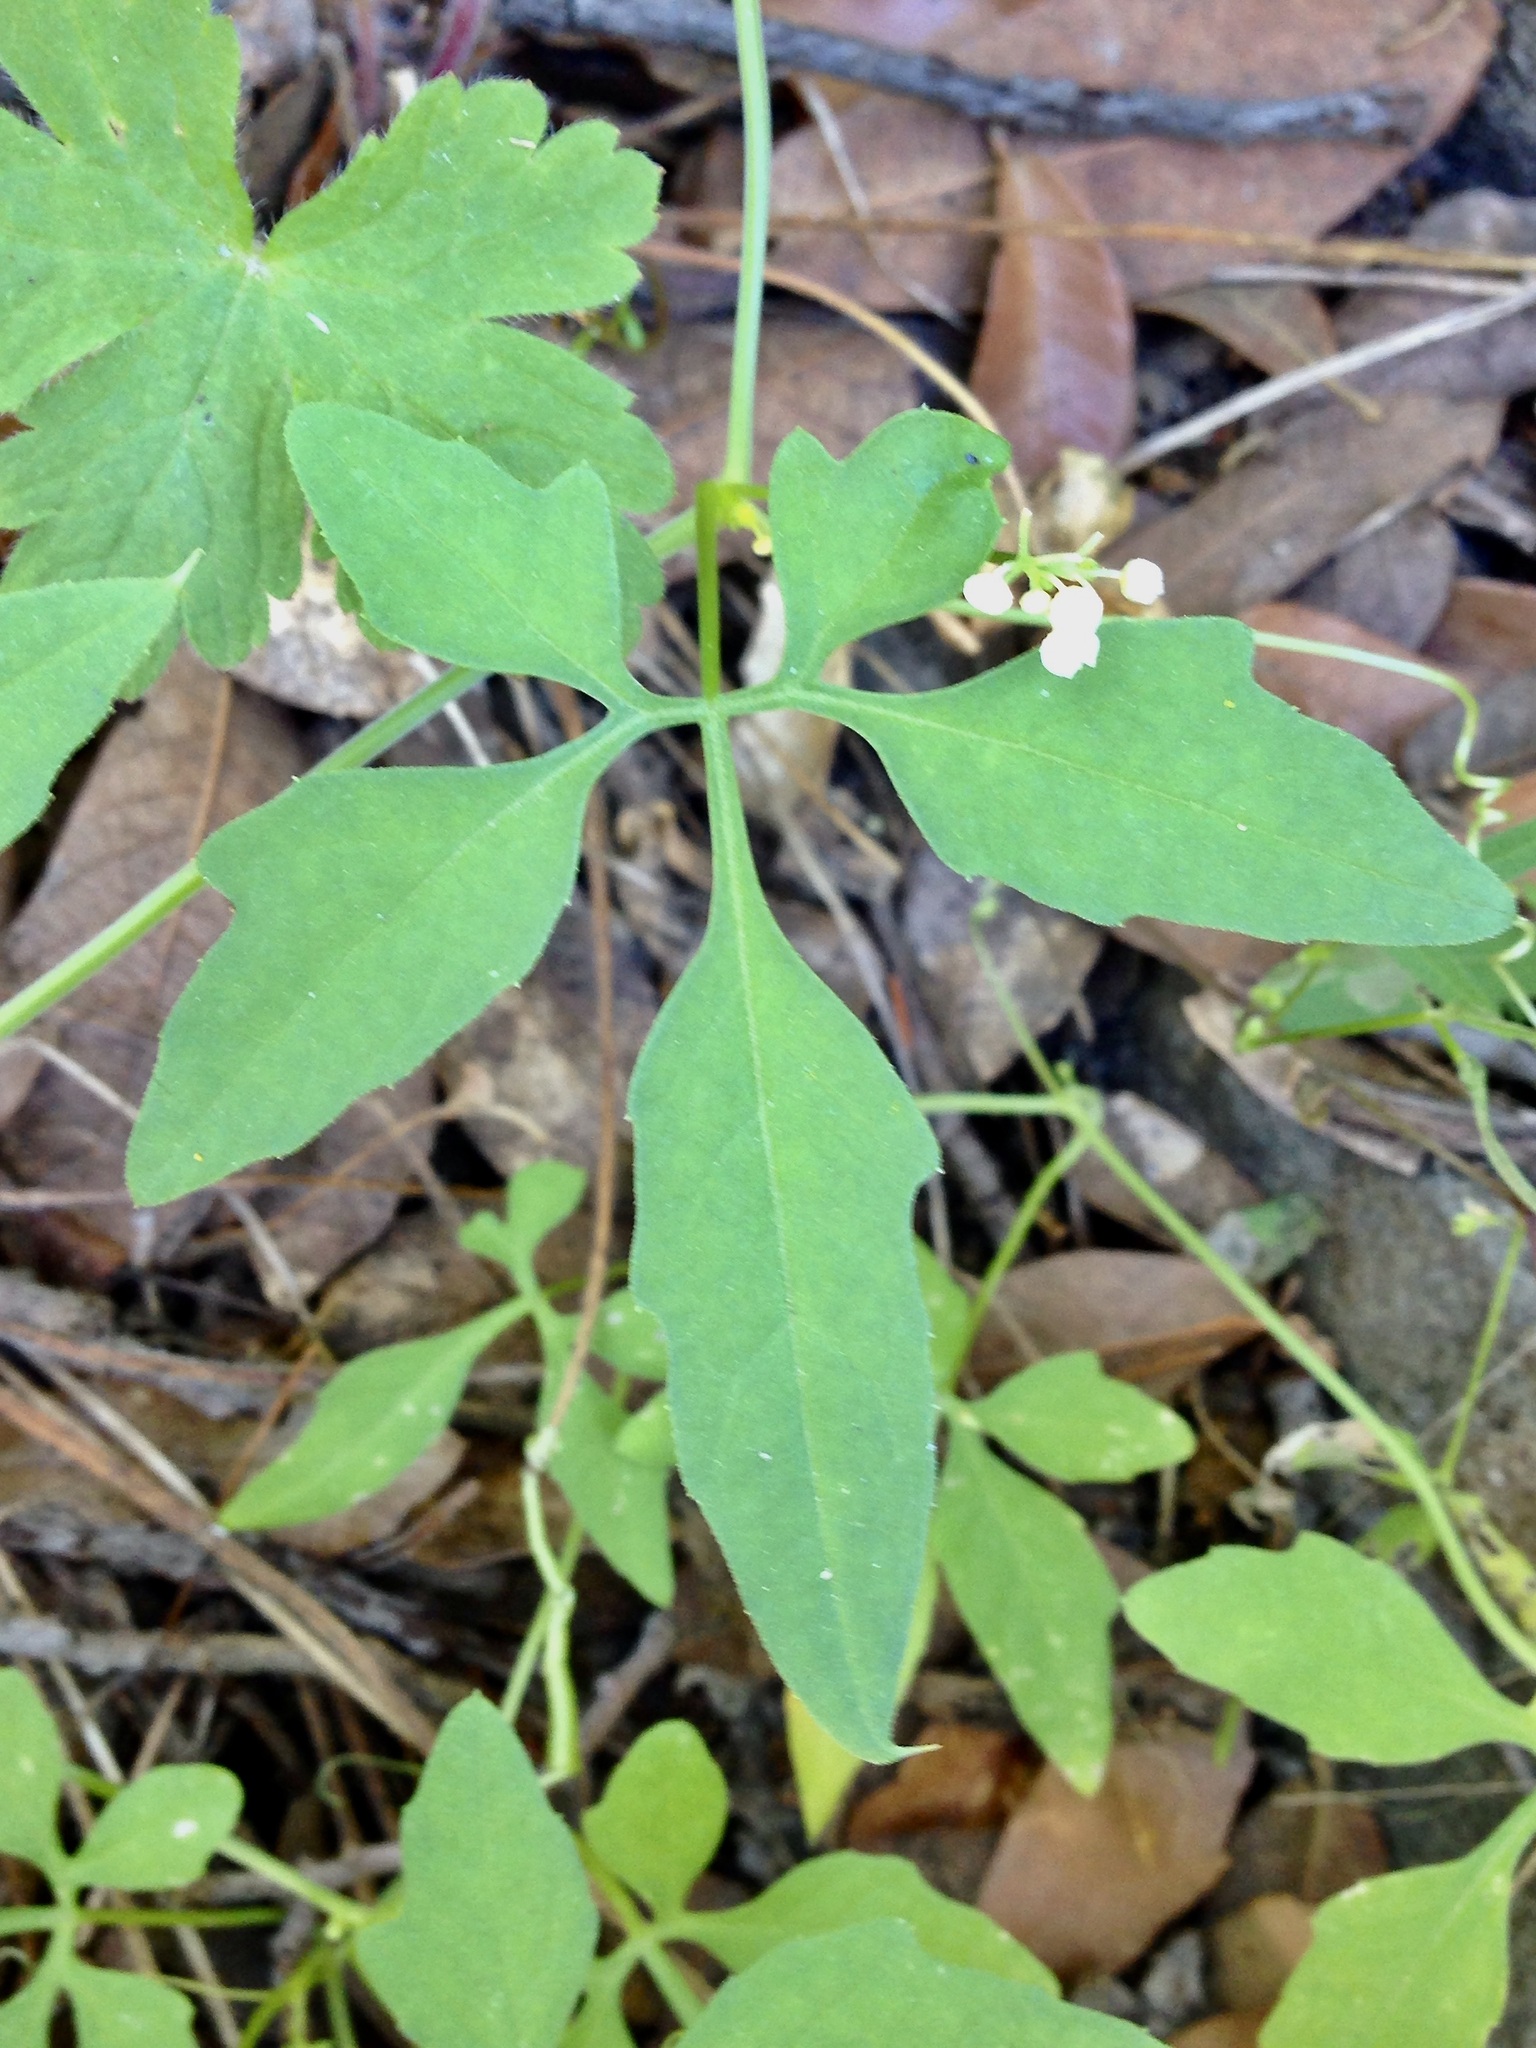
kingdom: Plantae
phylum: Tracheophyta
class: Magnoliopsida
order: Cucurbitales
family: Cucurbitaceae
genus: Cyclanthera
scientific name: Cyclanthera gracillima
